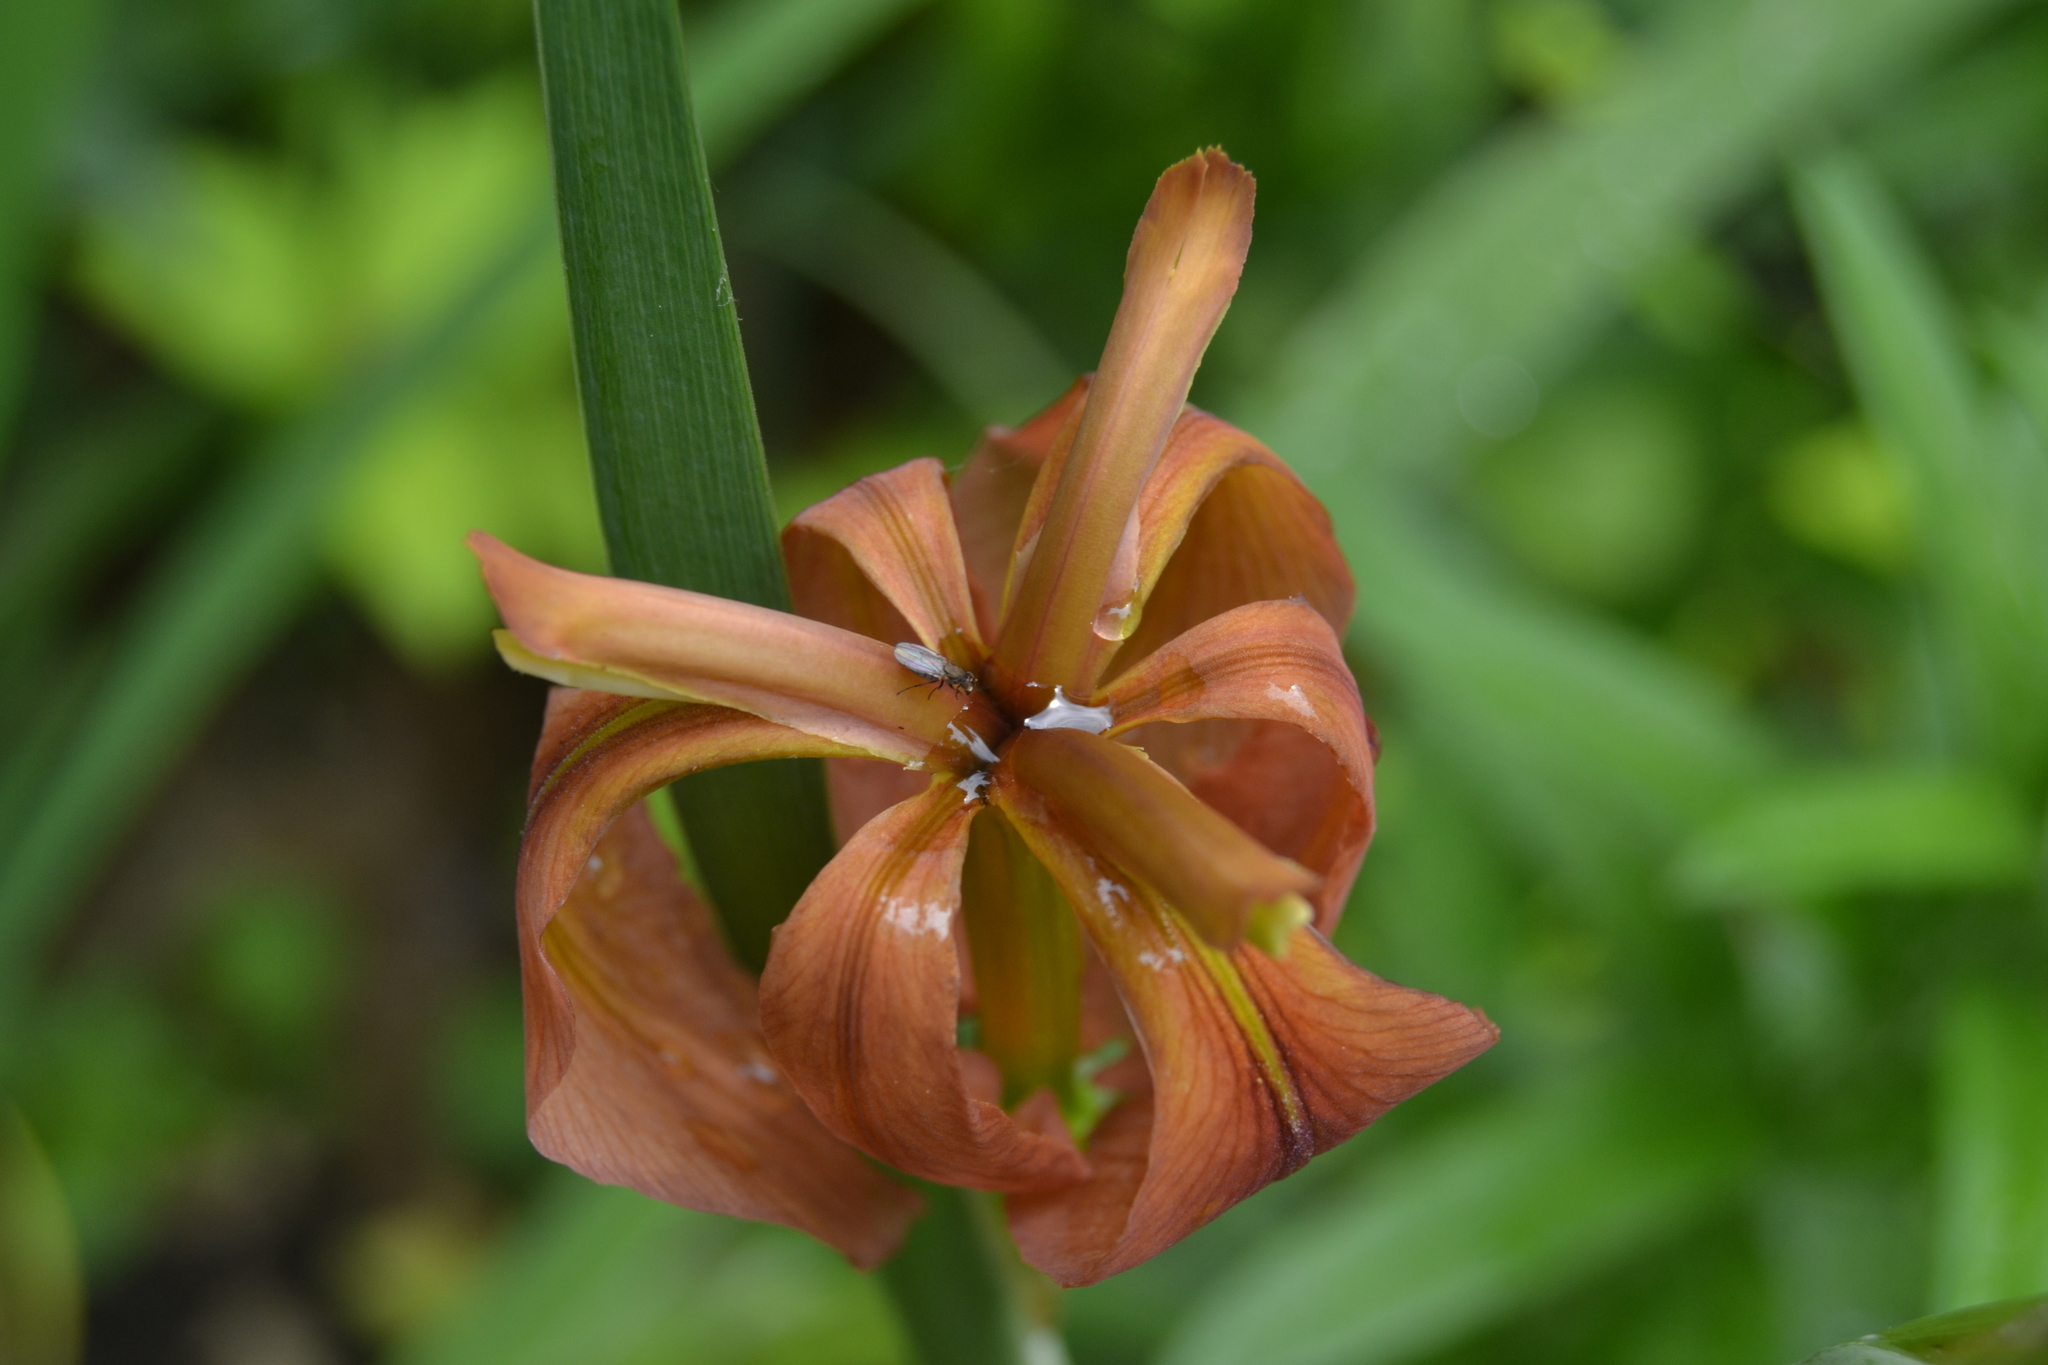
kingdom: Plantae
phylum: Tracheophyta
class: Liliopsida
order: Asparagales
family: Iridaceae
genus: Iris
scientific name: Iris fulva
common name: Copper iris
